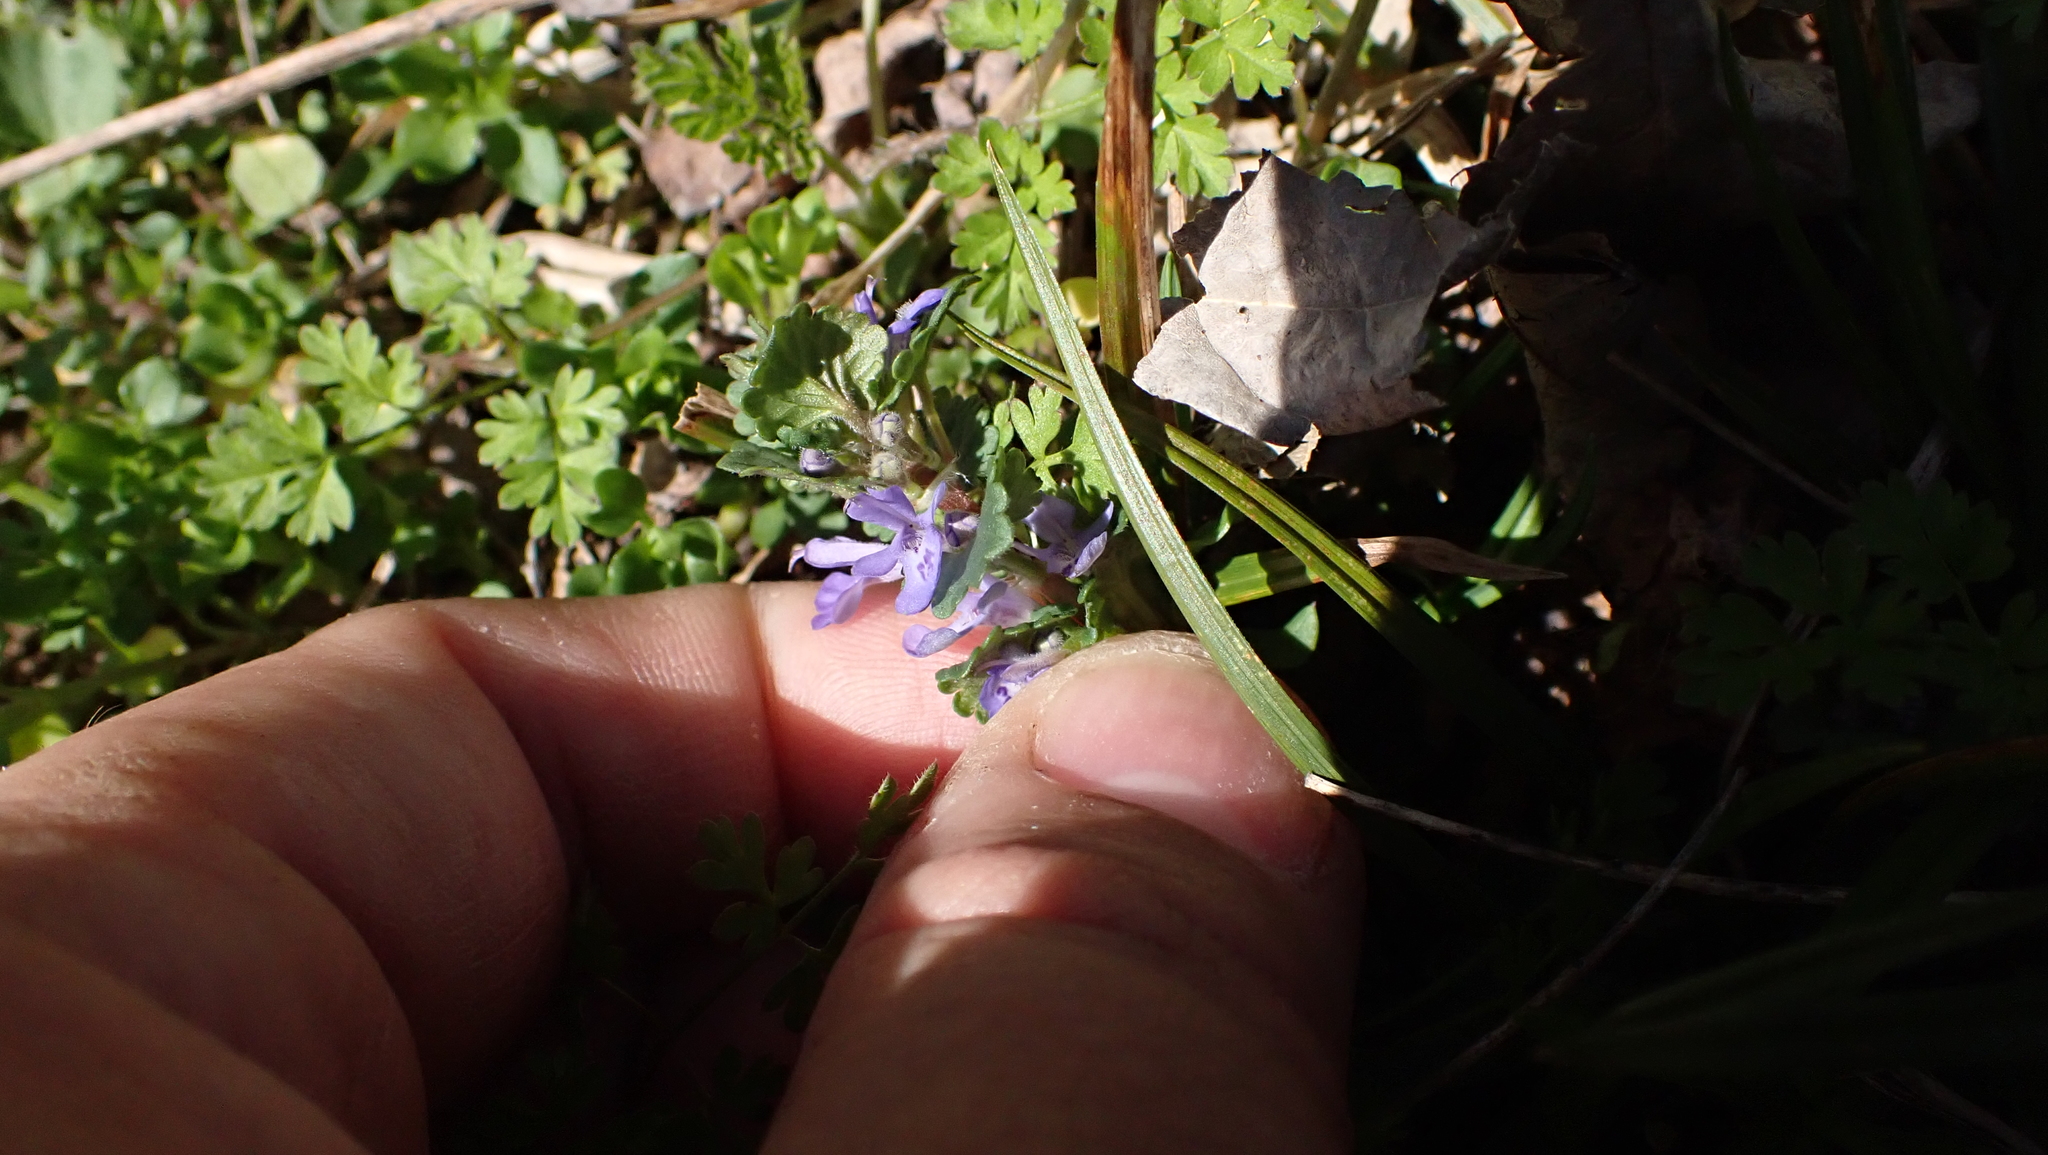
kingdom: Plantae
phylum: Tracheophyta
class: Magnoliopsida
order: Lamiales
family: Lamiaceae
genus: Glechoma
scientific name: Glechoma hederacea
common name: Ground ivy
